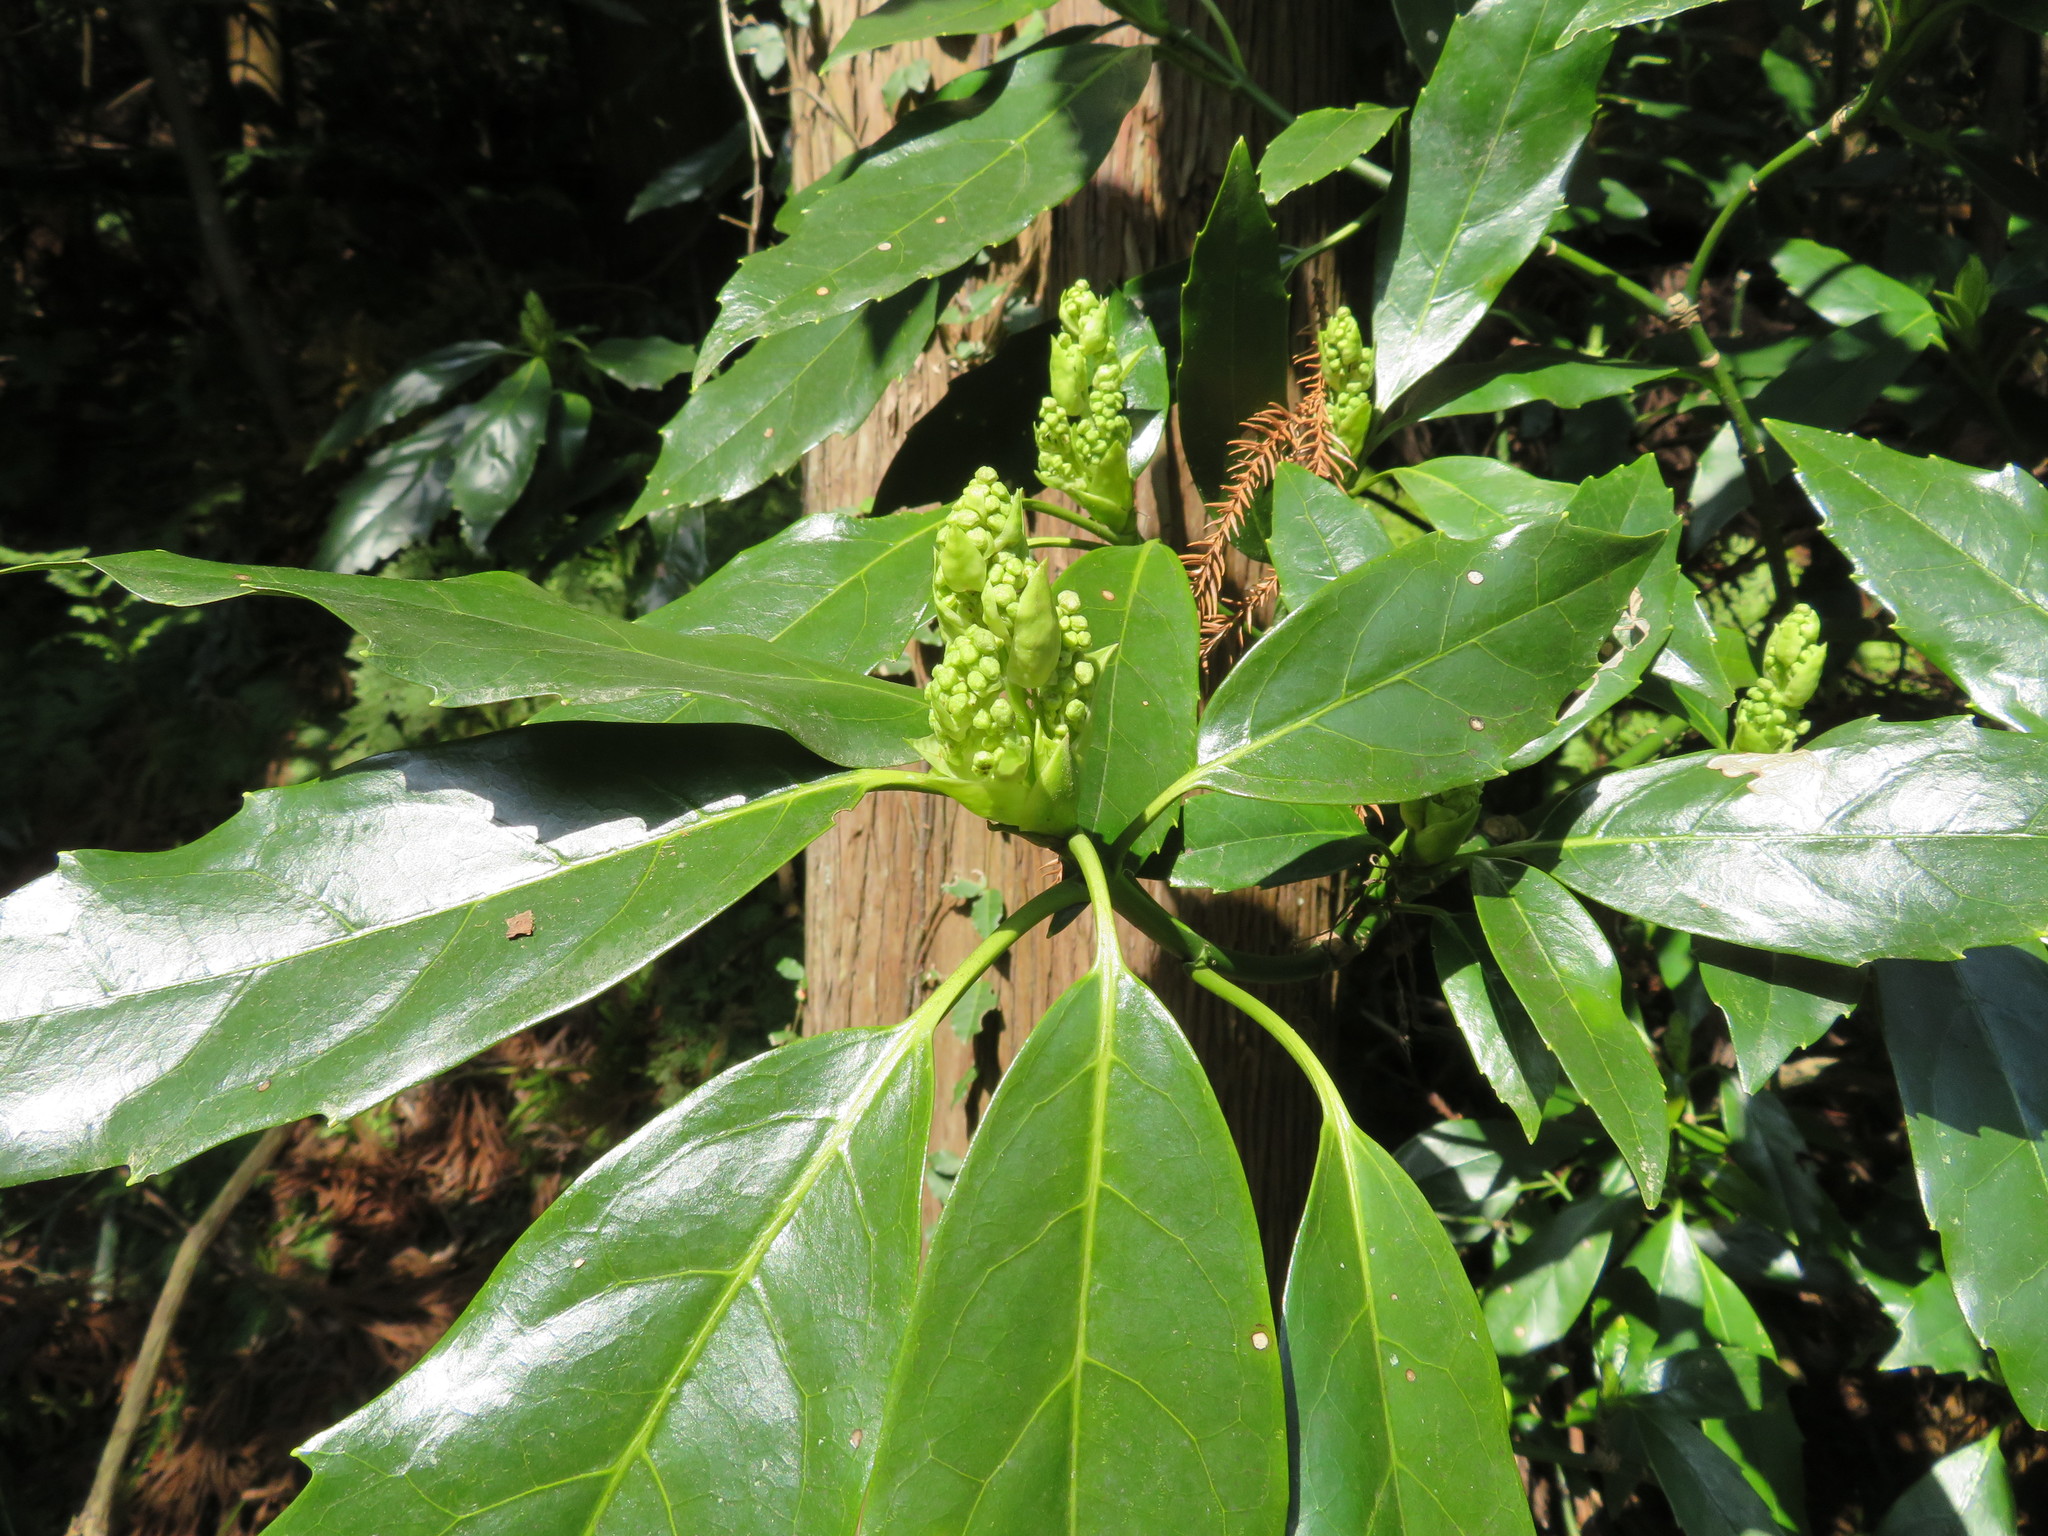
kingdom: Plantae
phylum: Tracheophyta
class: Magnoliopsida
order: Garryales
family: Garryaceae
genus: Aucuba
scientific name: Aucuba japonica
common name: Spotted-laurel
